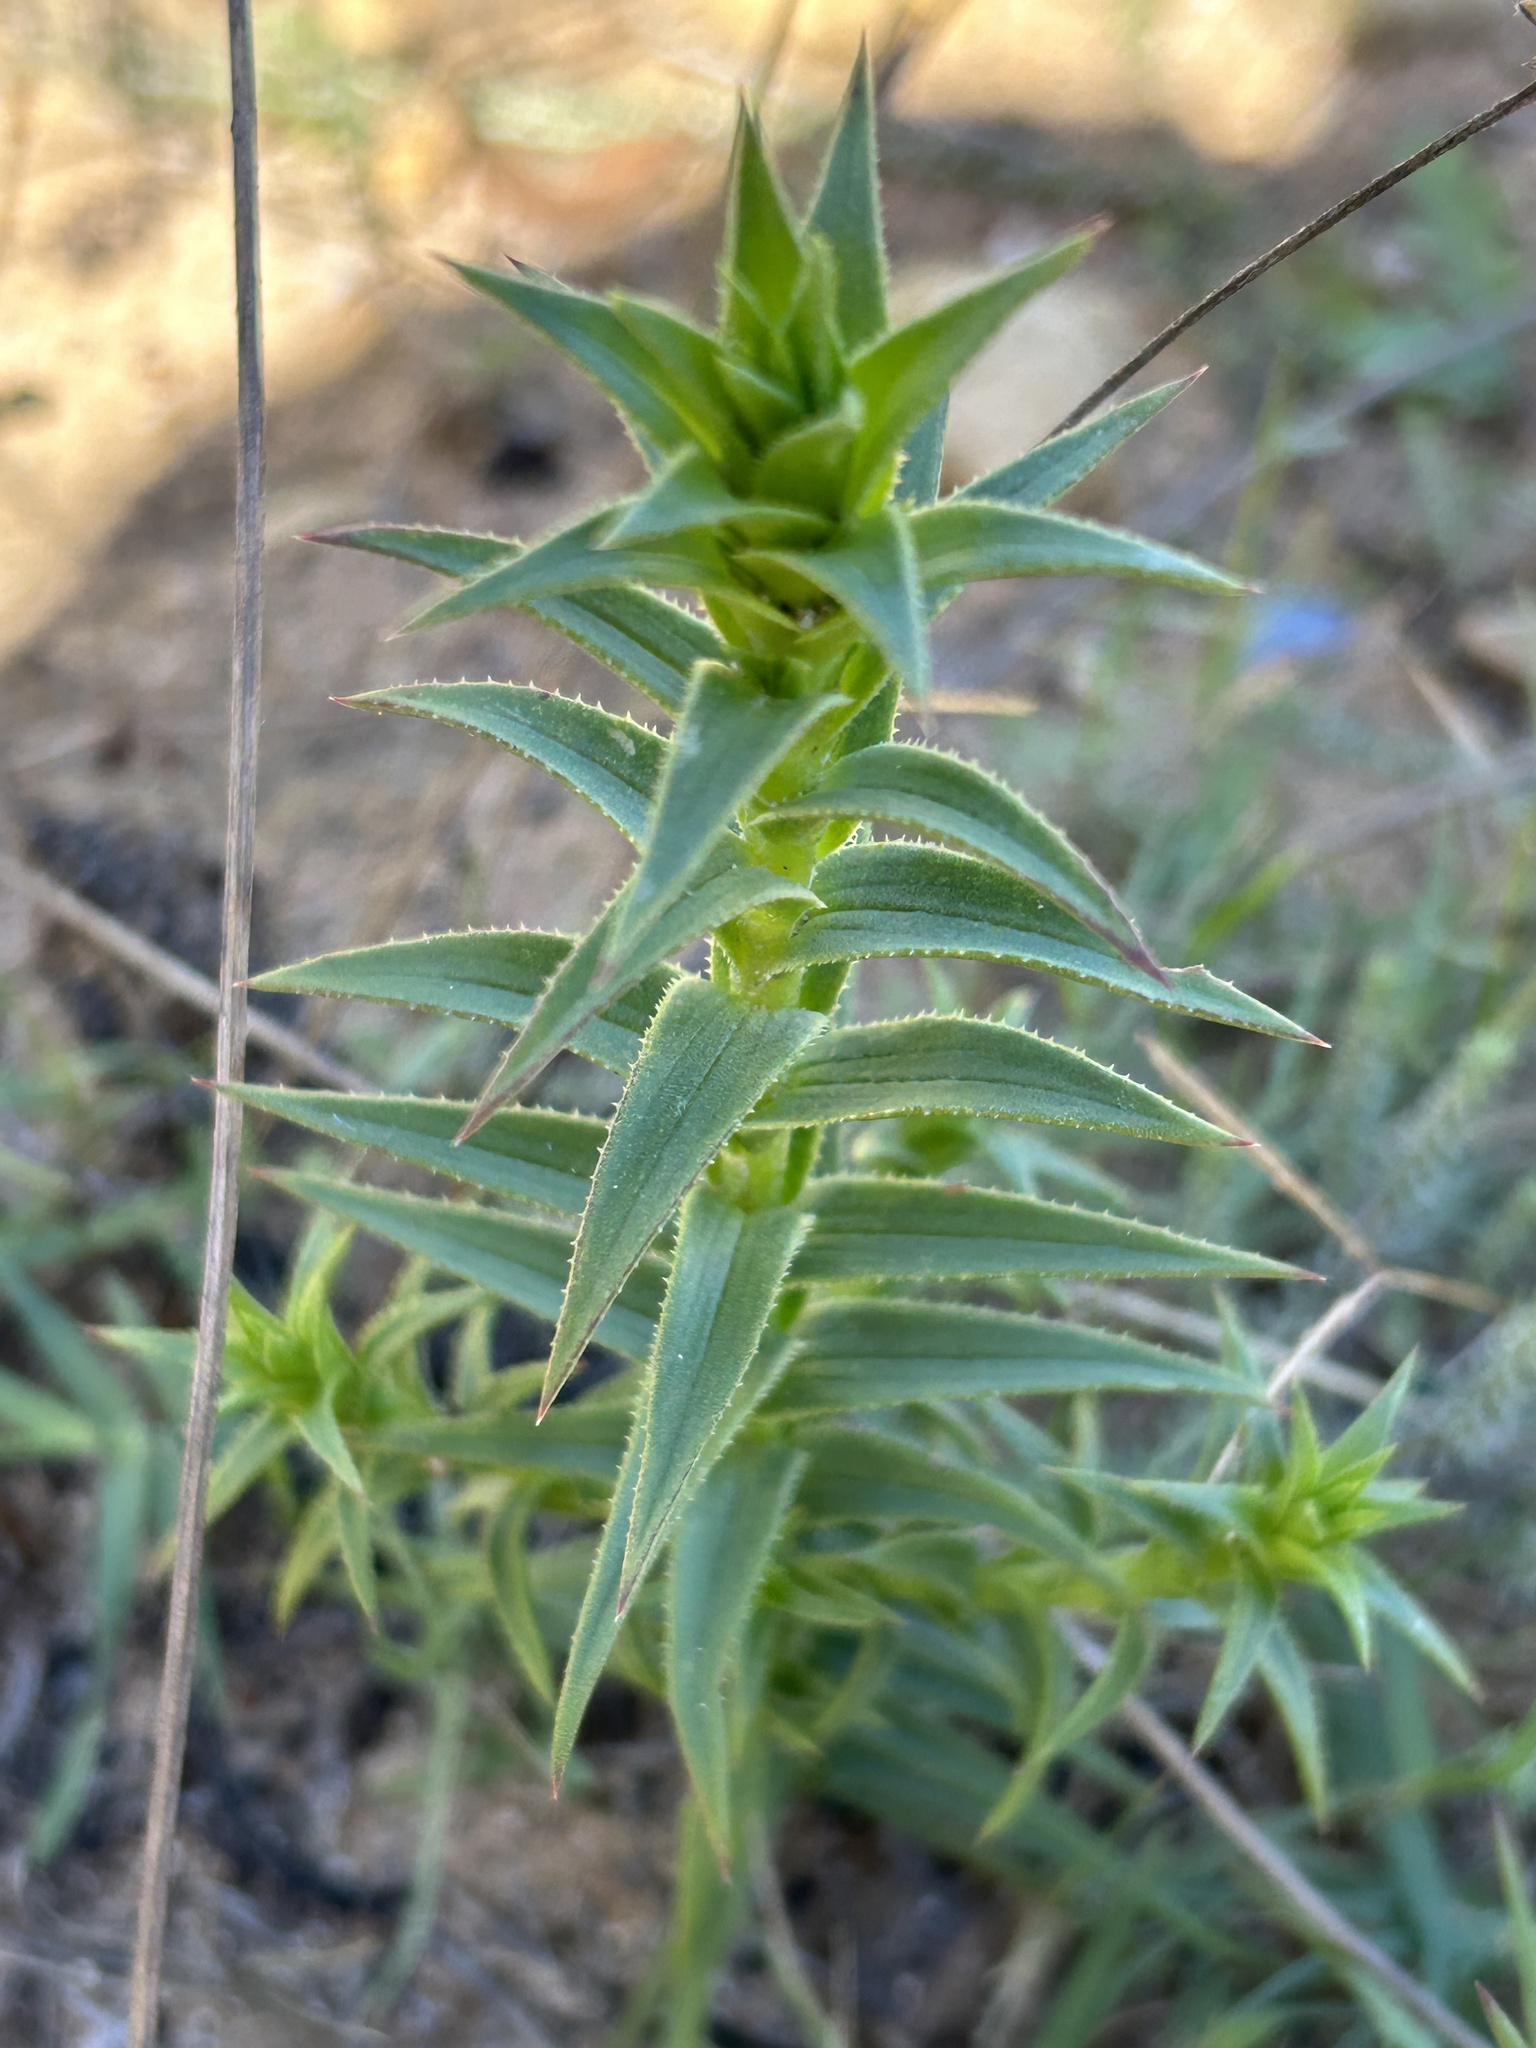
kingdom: Plantae
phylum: Tracheophyta
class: Magnoliopsida
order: Asterales
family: Asteraceae
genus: Oedera
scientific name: Oedera capensis
